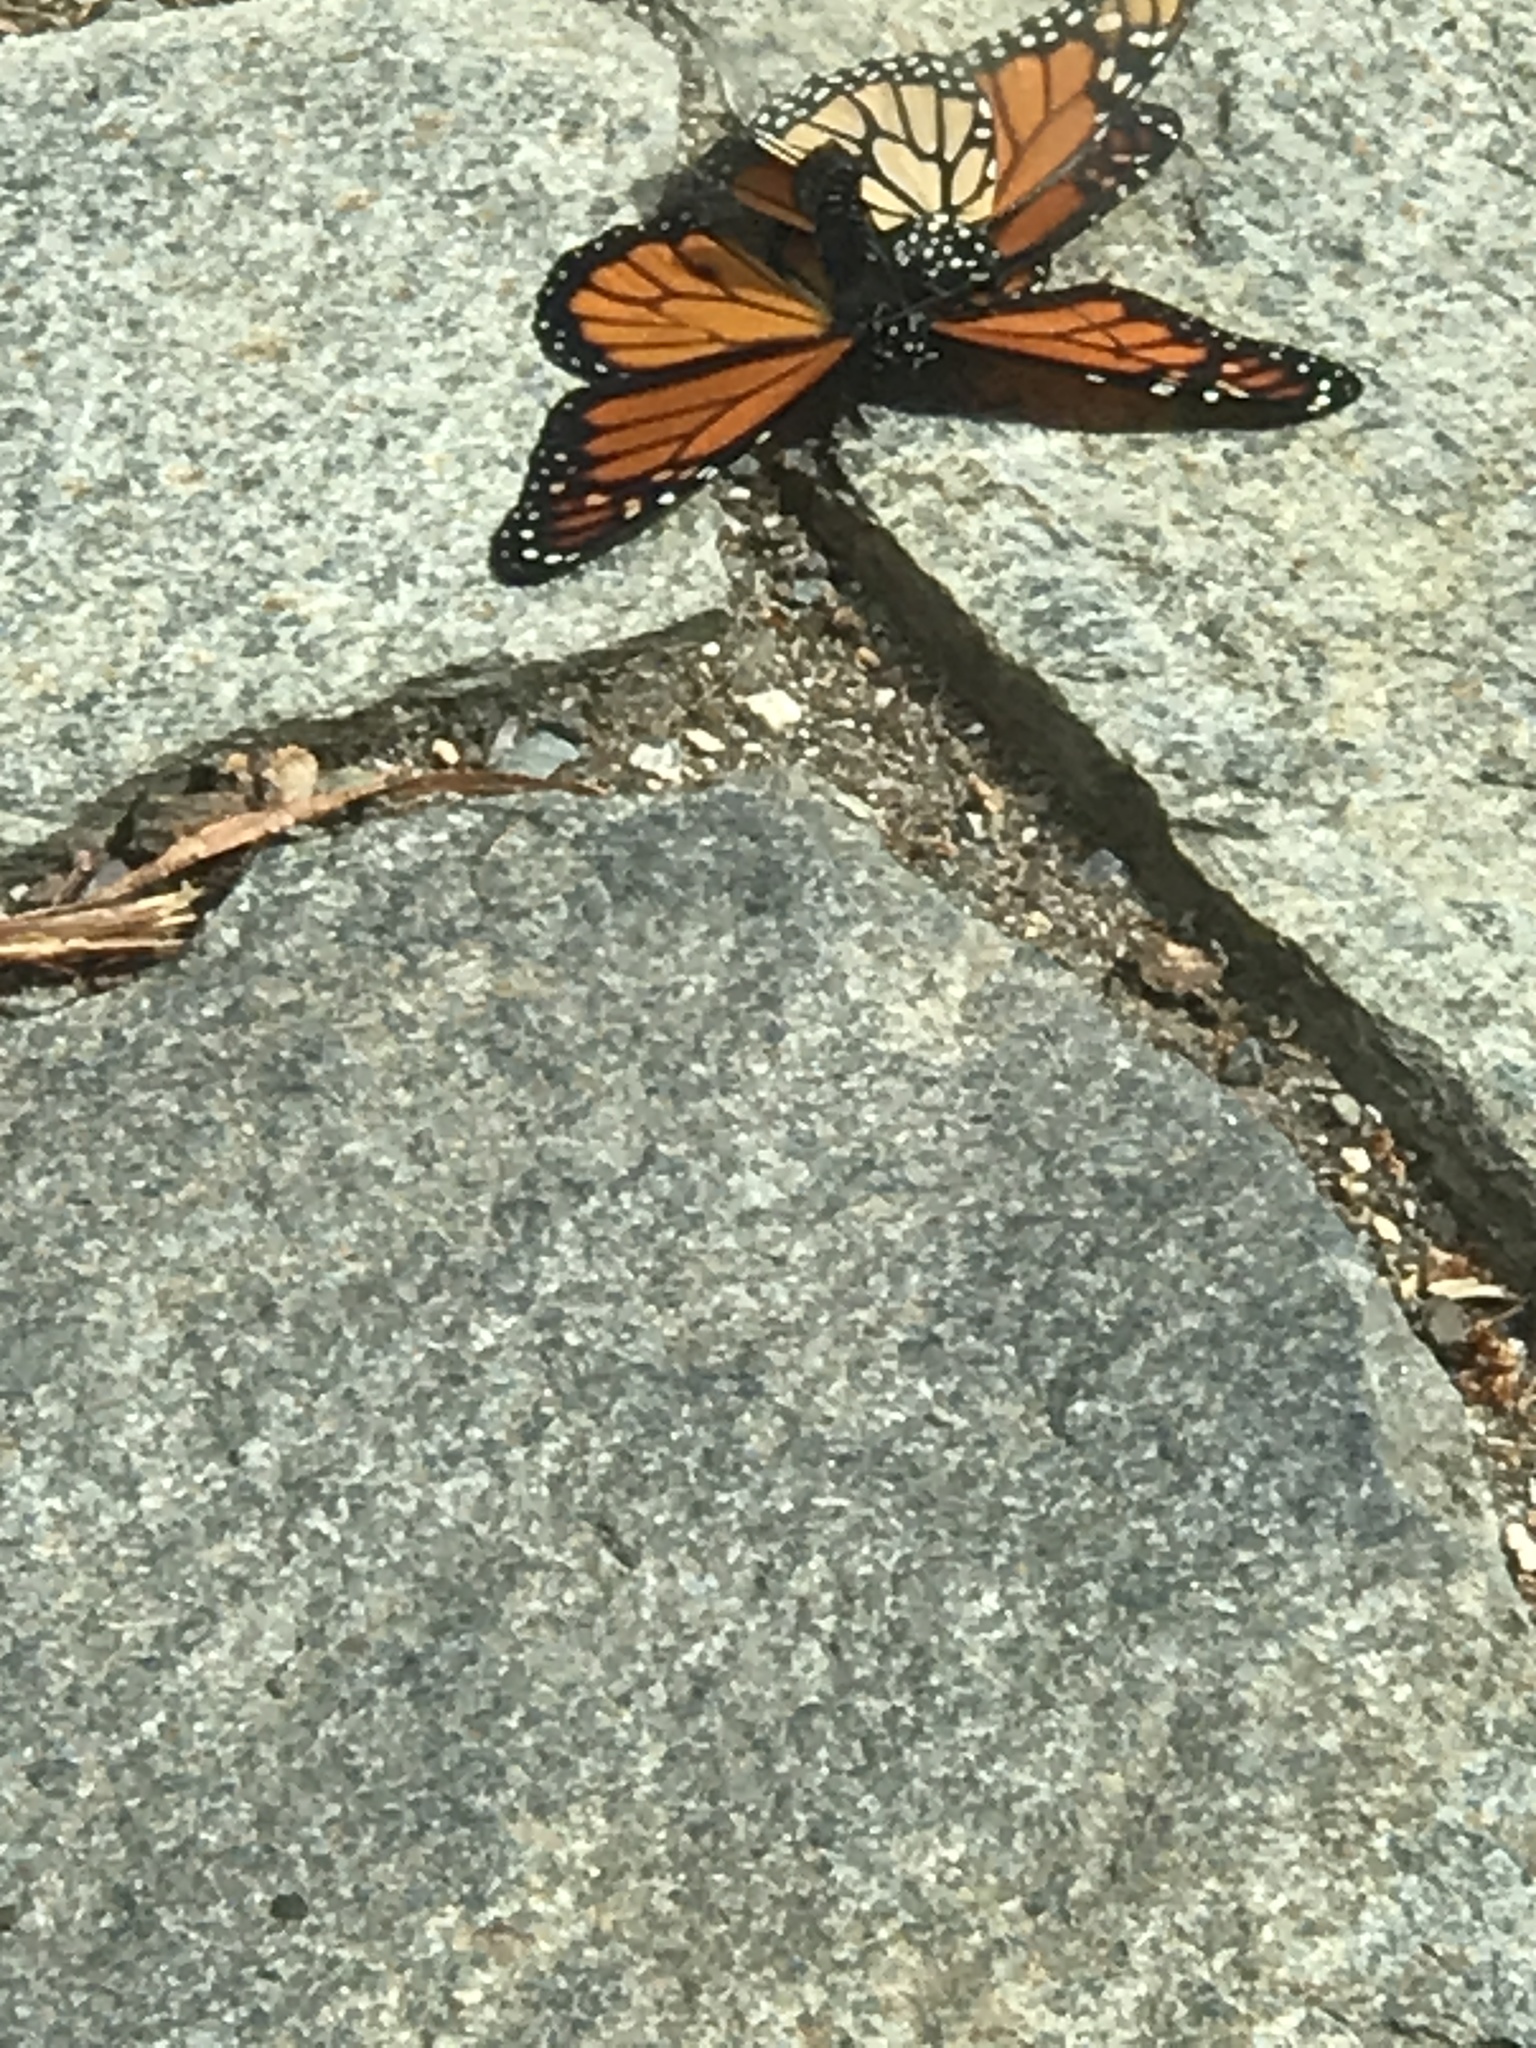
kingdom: Animalia
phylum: Arthropoda
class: Insecta
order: Lepidoptera
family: Nymphalidae
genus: Danaus
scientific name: Danaus plexippus
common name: Monarch
